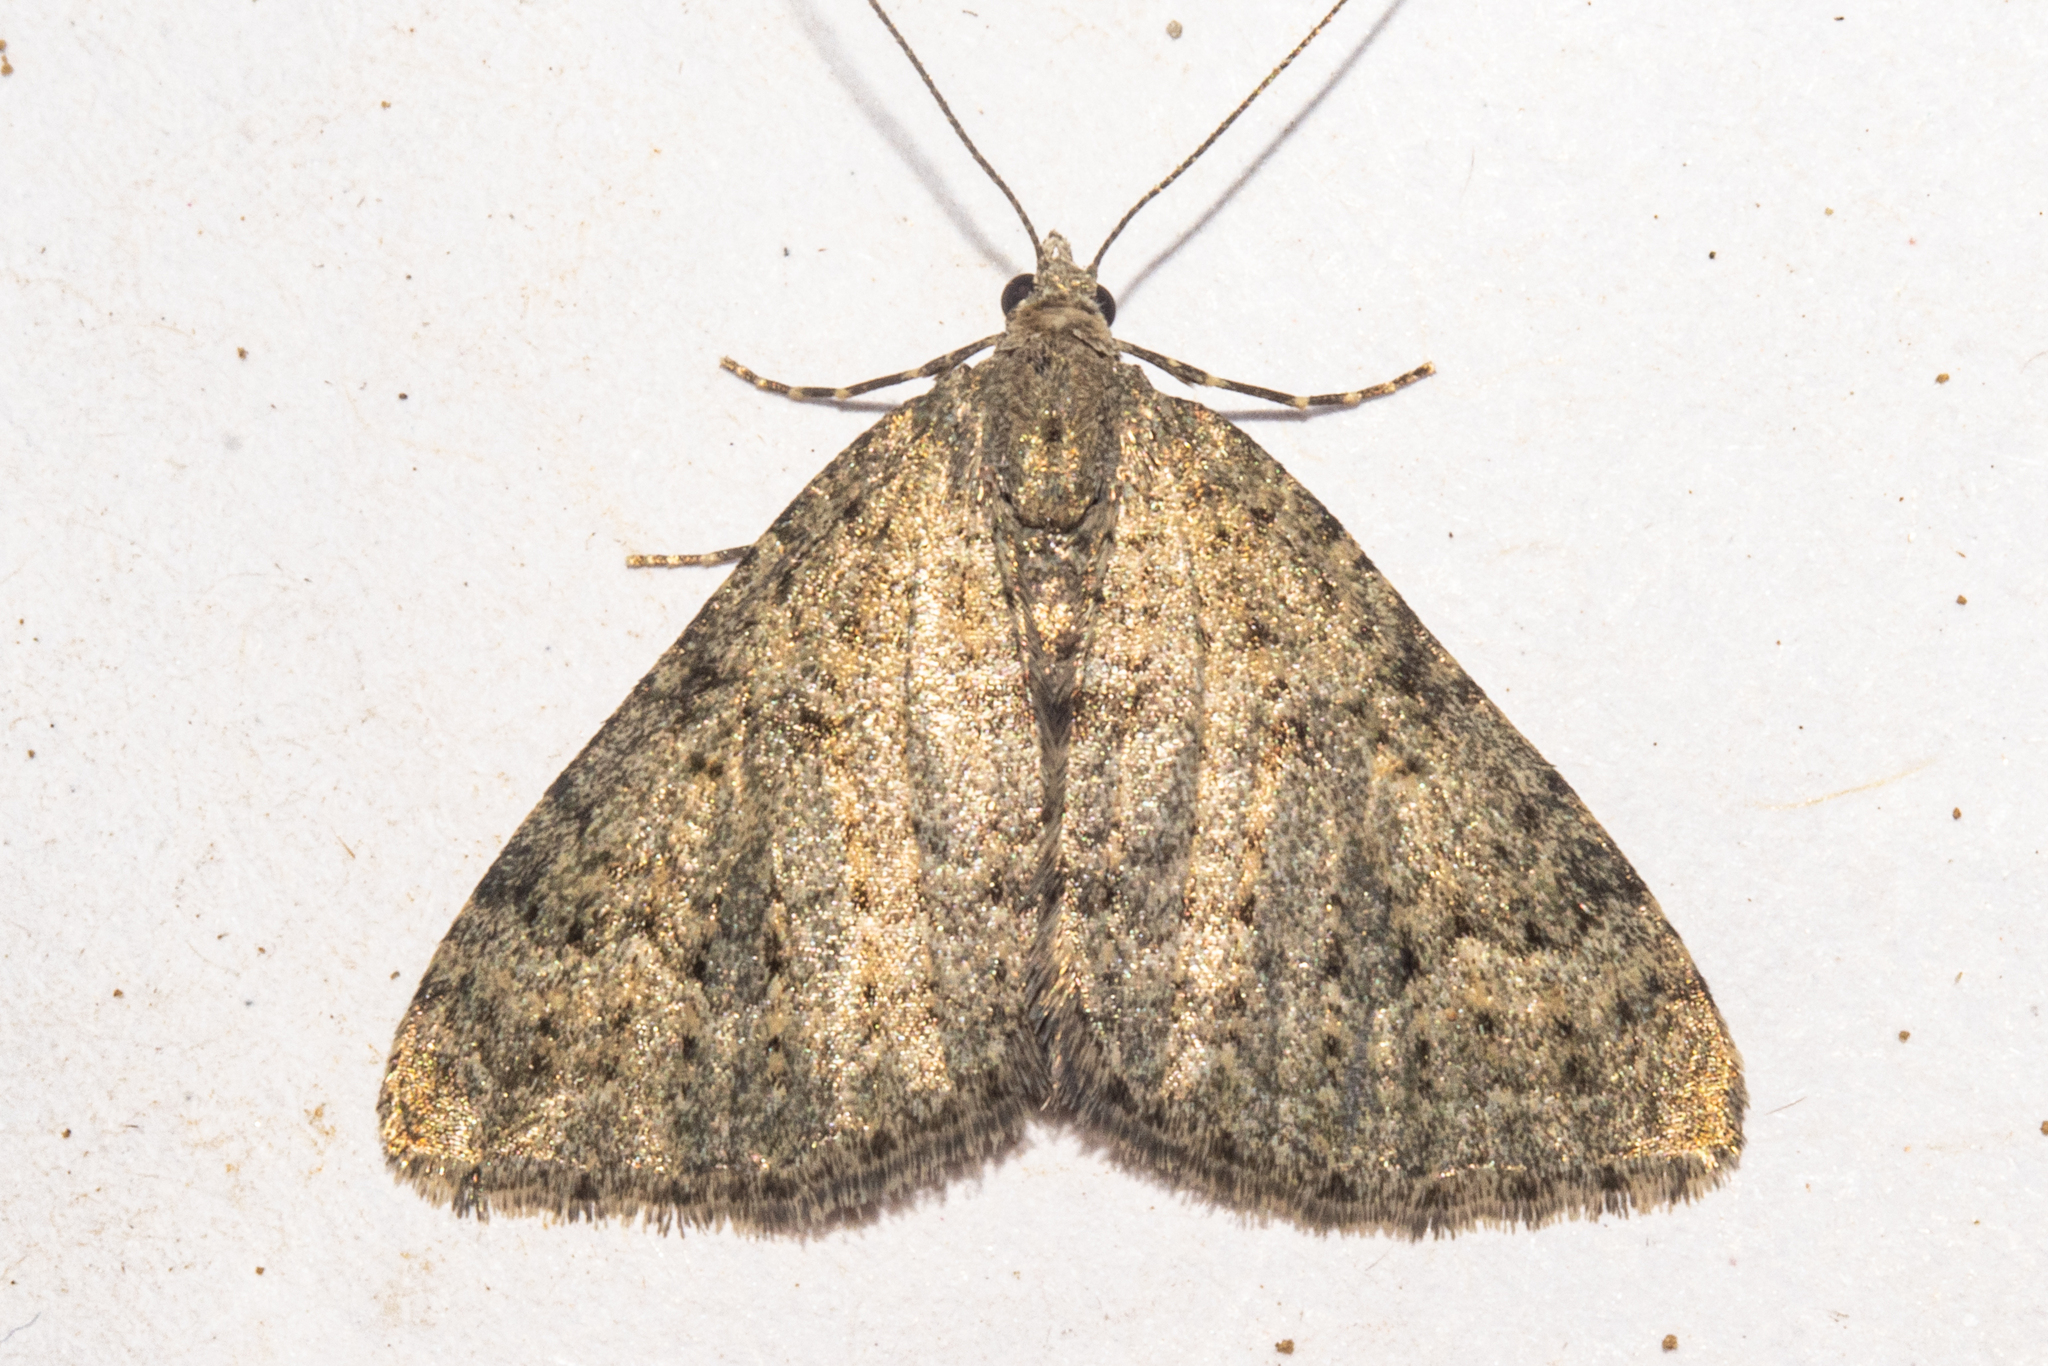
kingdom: Animalia
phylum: Arthropoda
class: Insecta
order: Lepidoptera
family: Geometridae
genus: Helastia
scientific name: Helastia corcularia
